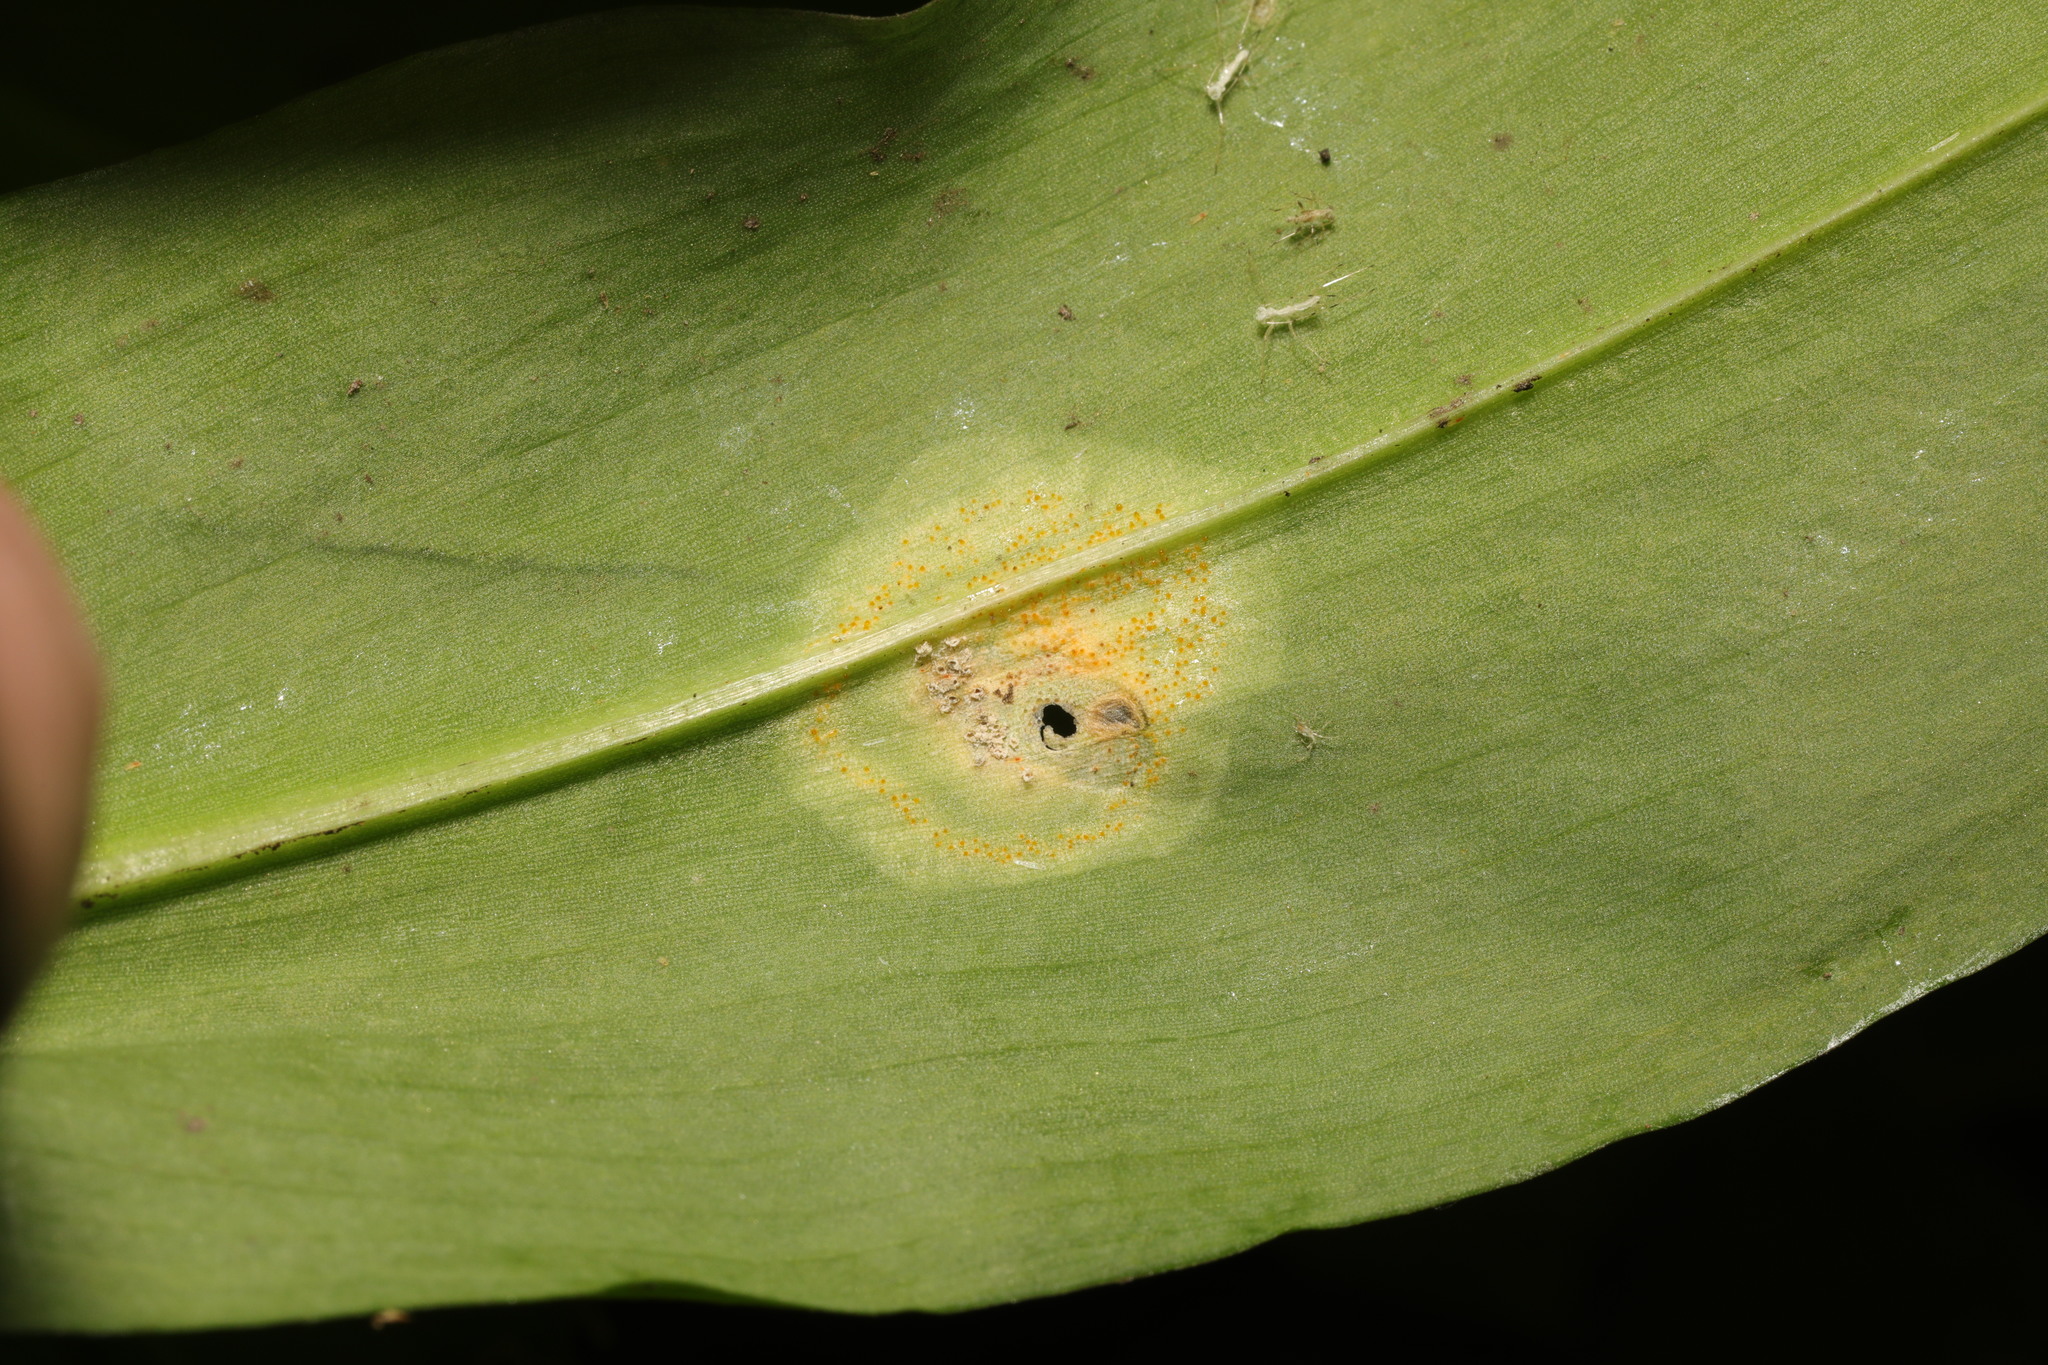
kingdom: Fungi
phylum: Basidiomycota
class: Pucciniomycetes
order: Pucciniales
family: Pucciniaceae
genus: Puccinia
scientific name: Puccinia sessilis
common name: Arum rust
